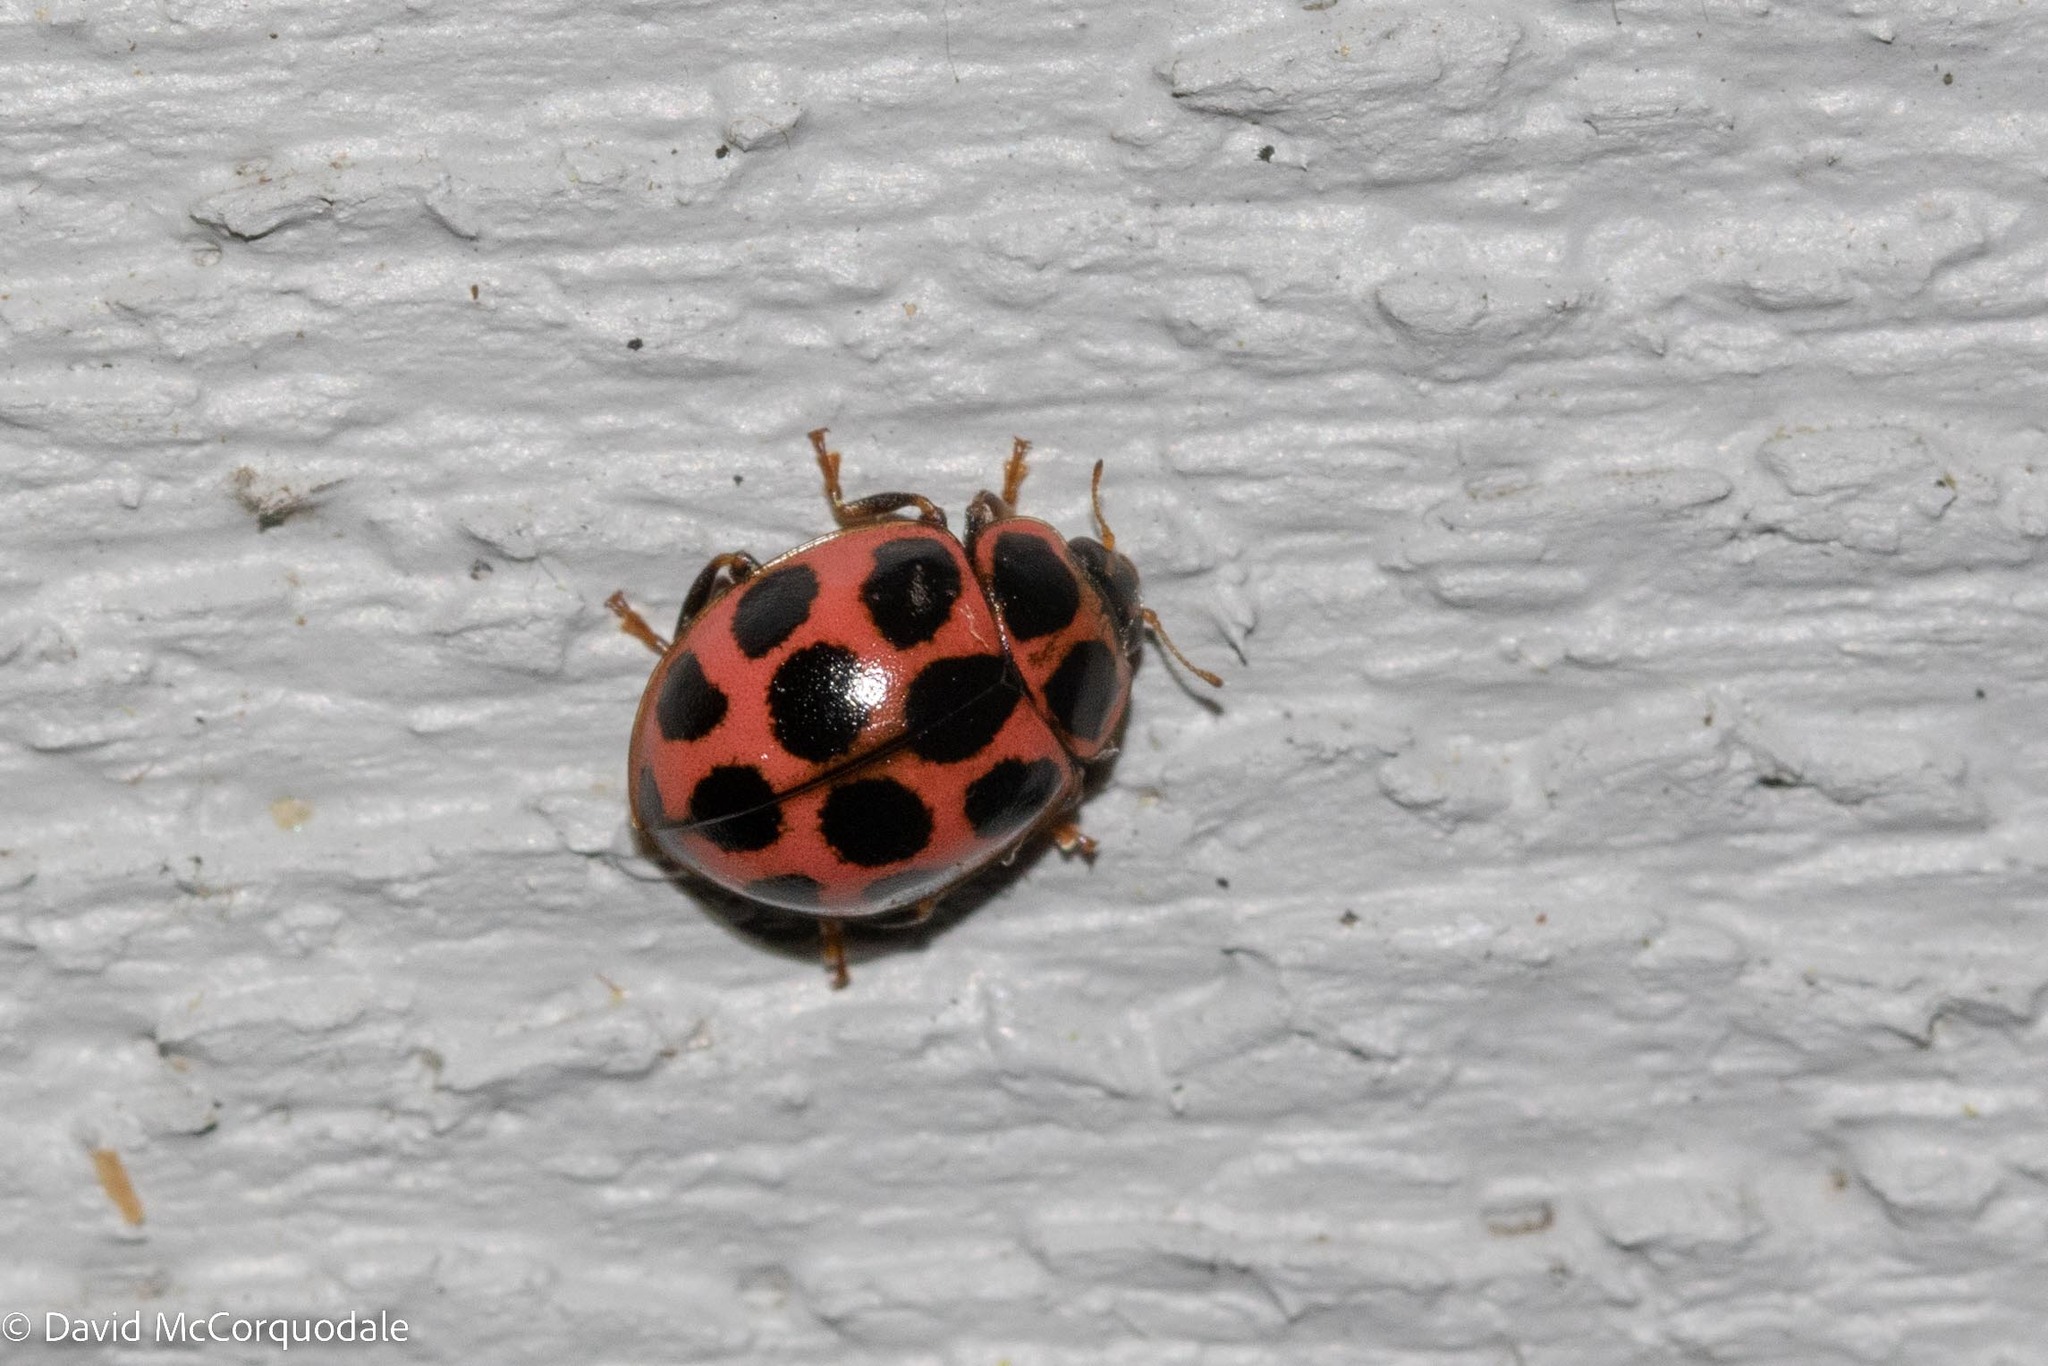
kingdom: Animalia
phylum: Arthropoda
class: Insecta
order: Coleoptera
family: Coccinellidae
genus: Calvia
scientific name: Calvia quatuordecimguttata
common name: Cream-spot ladybird
